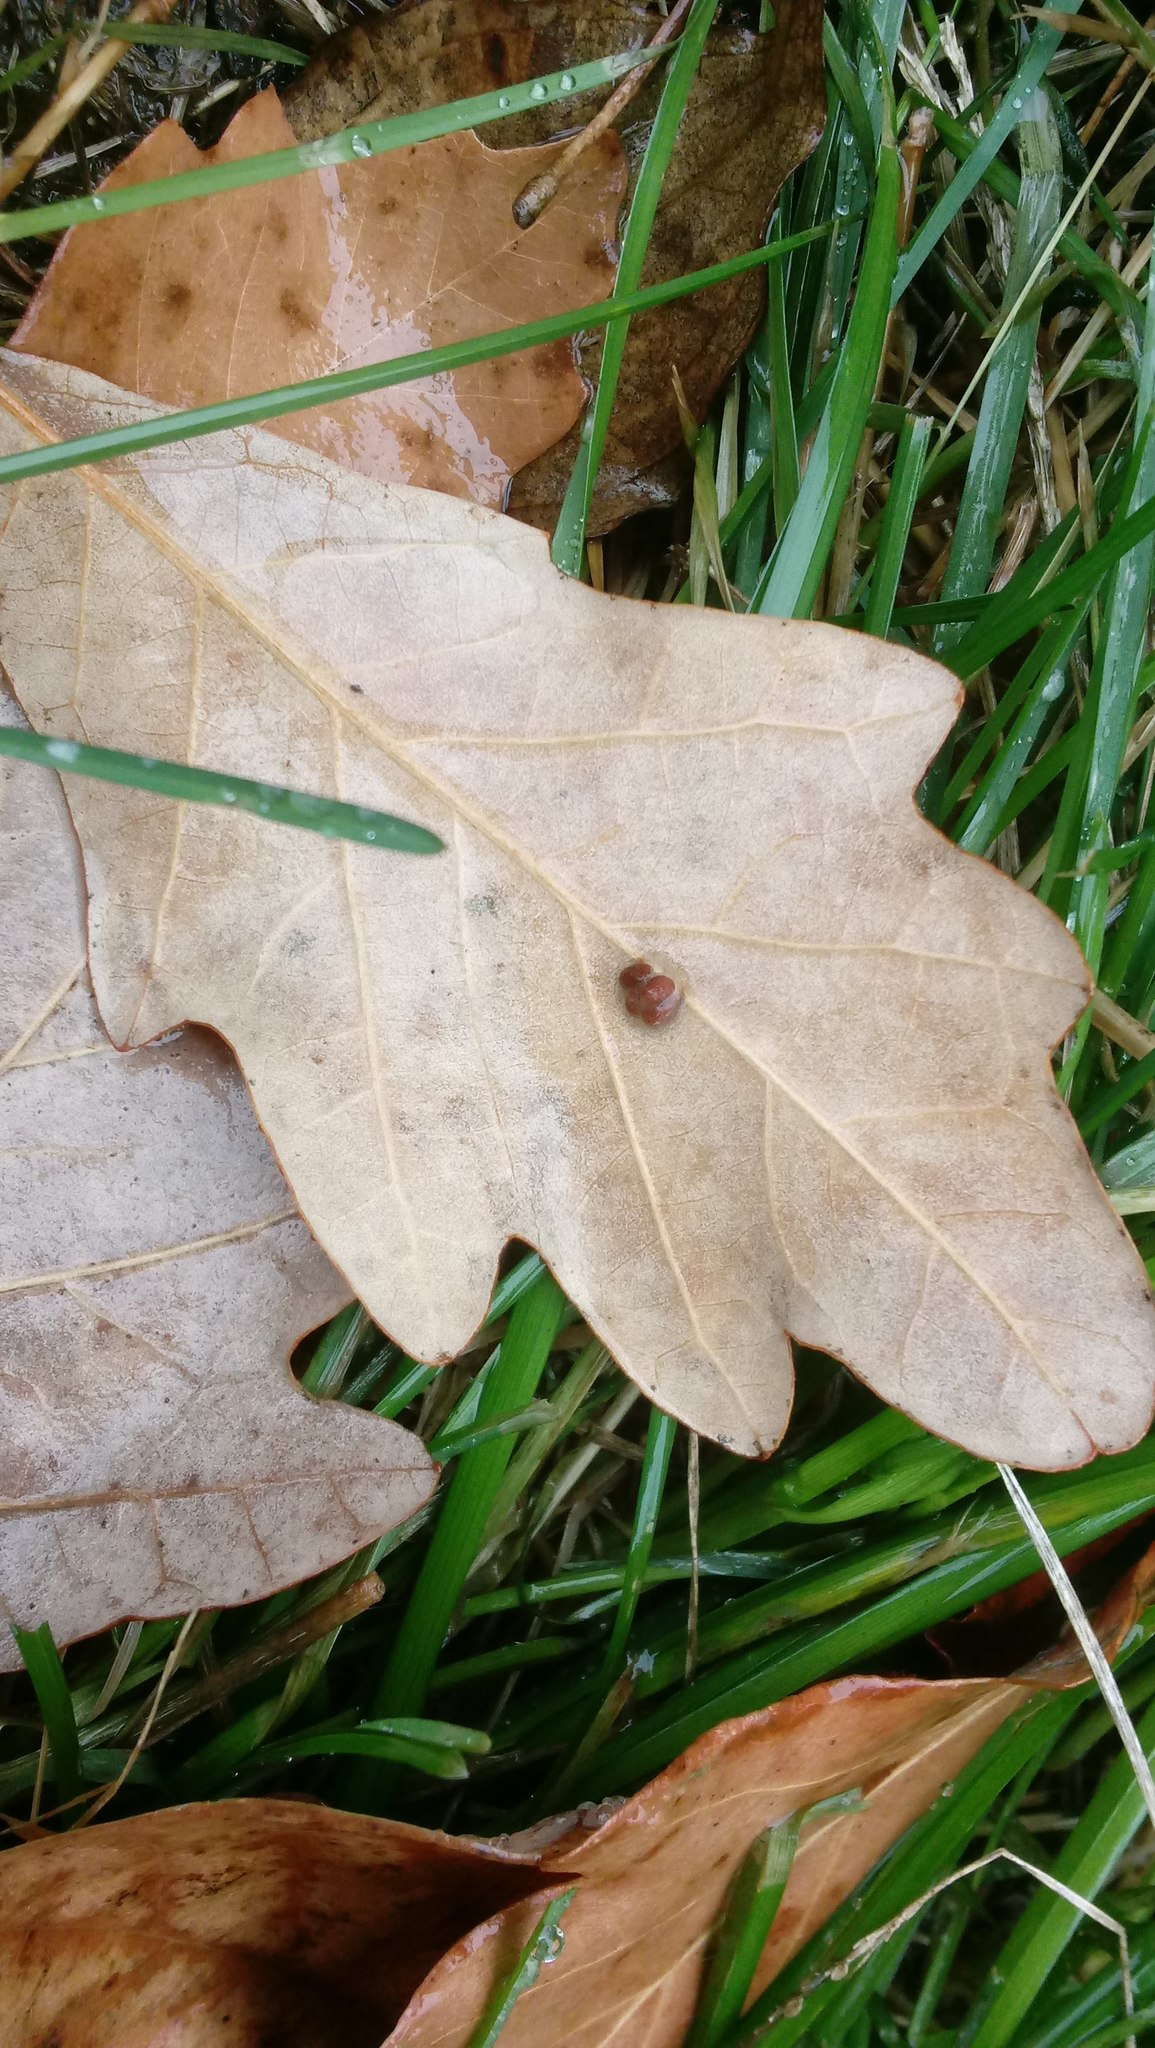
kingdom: Animalia
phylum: Arthropoda
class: Insecta
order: Hymenoptera
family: Cynipidae
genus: Andricus
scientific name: Andricus Druon ignotum
